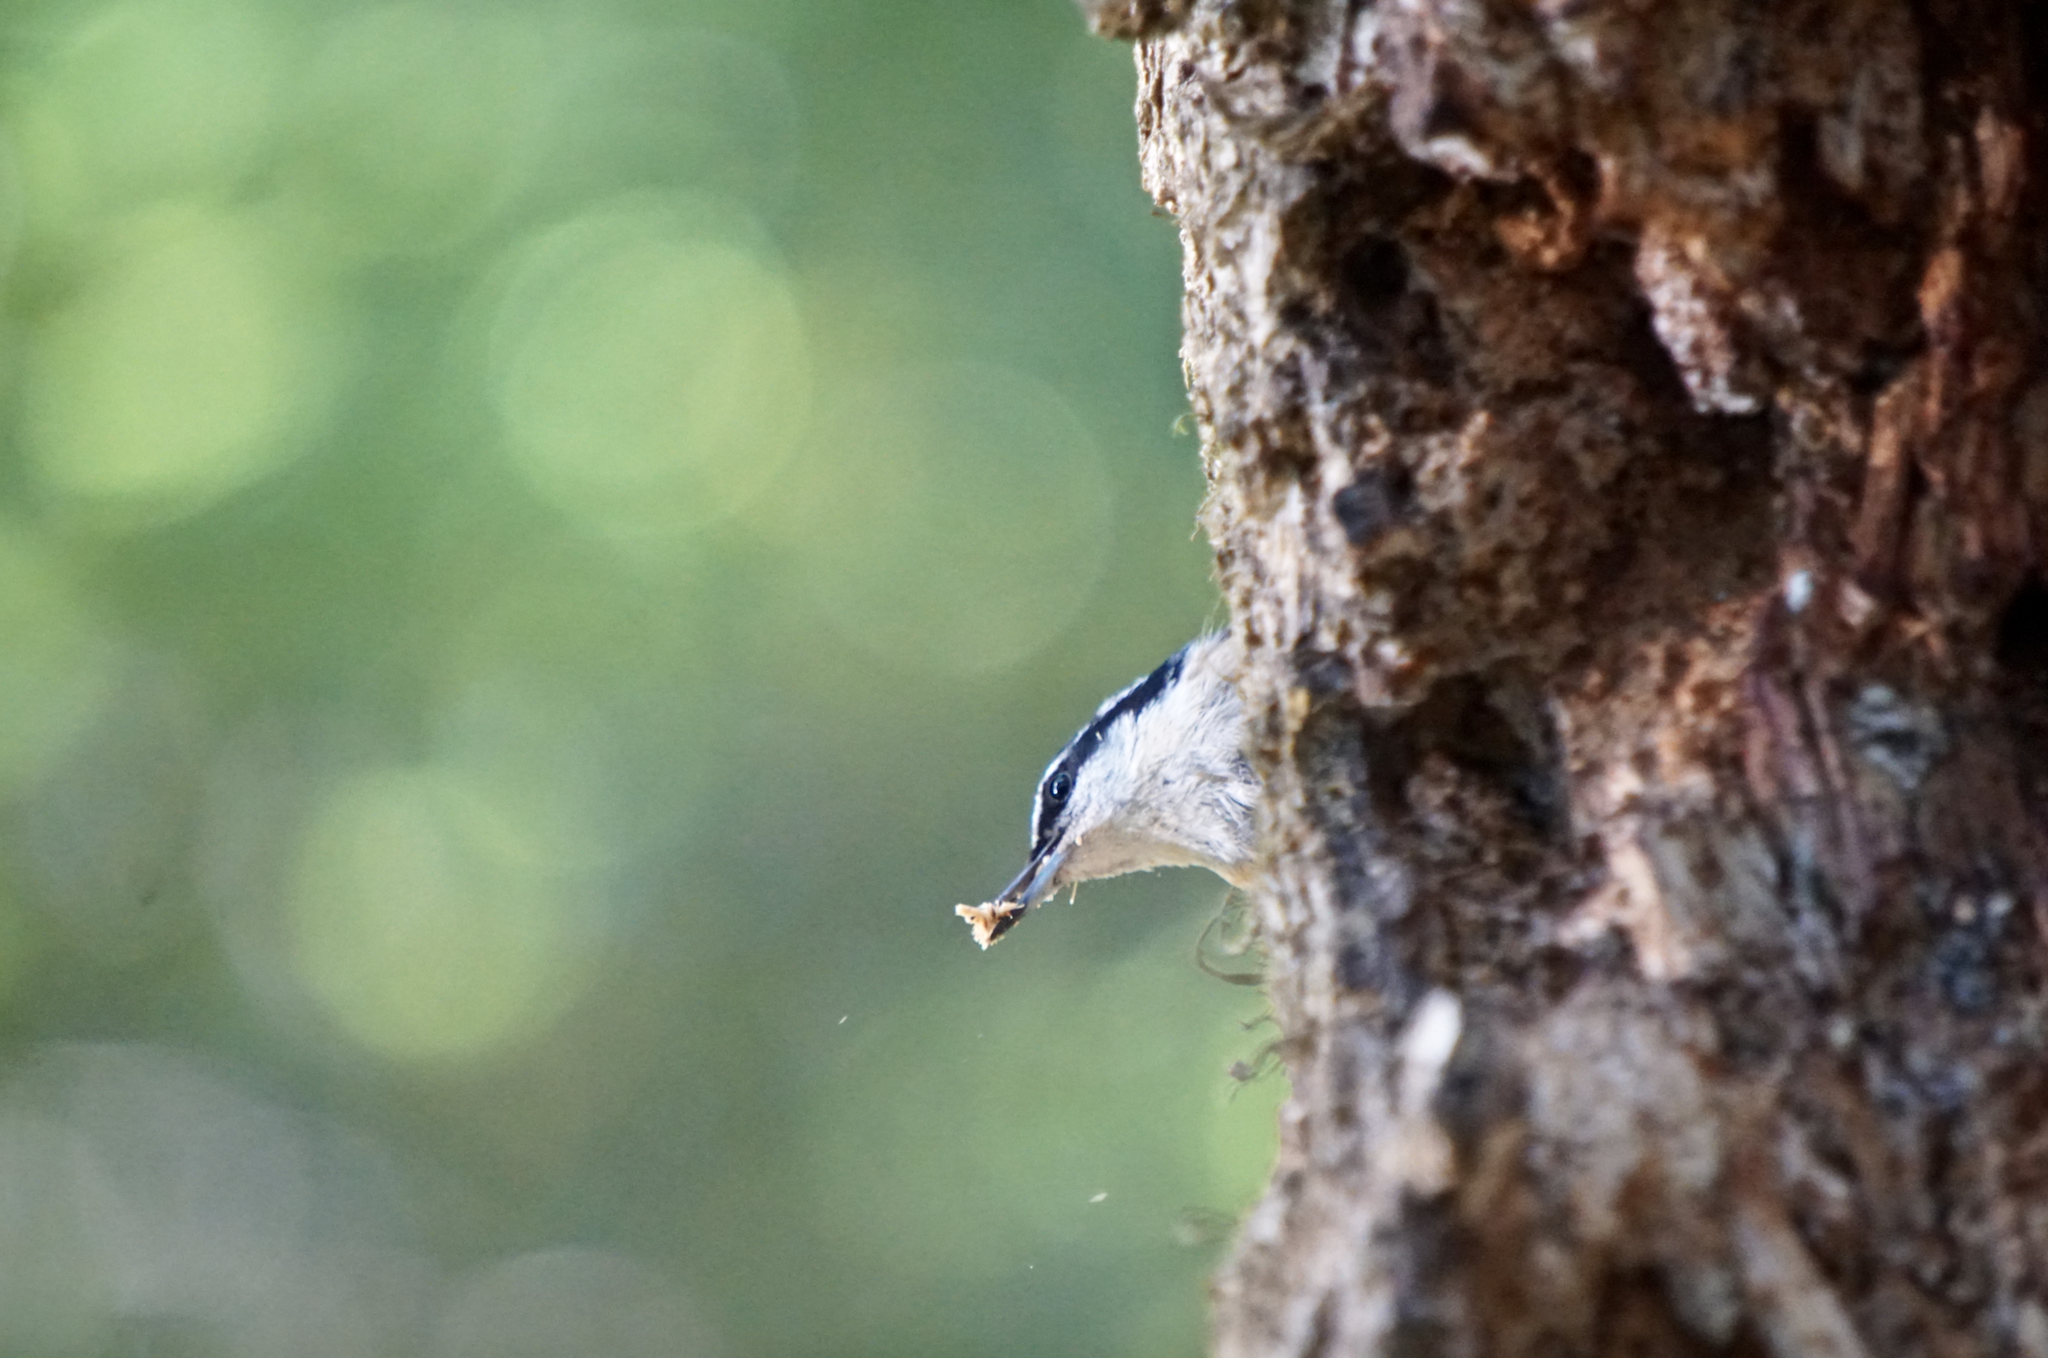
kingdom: Animalia
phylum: Chordata
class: Aves
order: Passeriformes
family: Sittidae
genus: Sitta
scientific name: Sitta canadensis
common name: Red-breasted nuthatch
